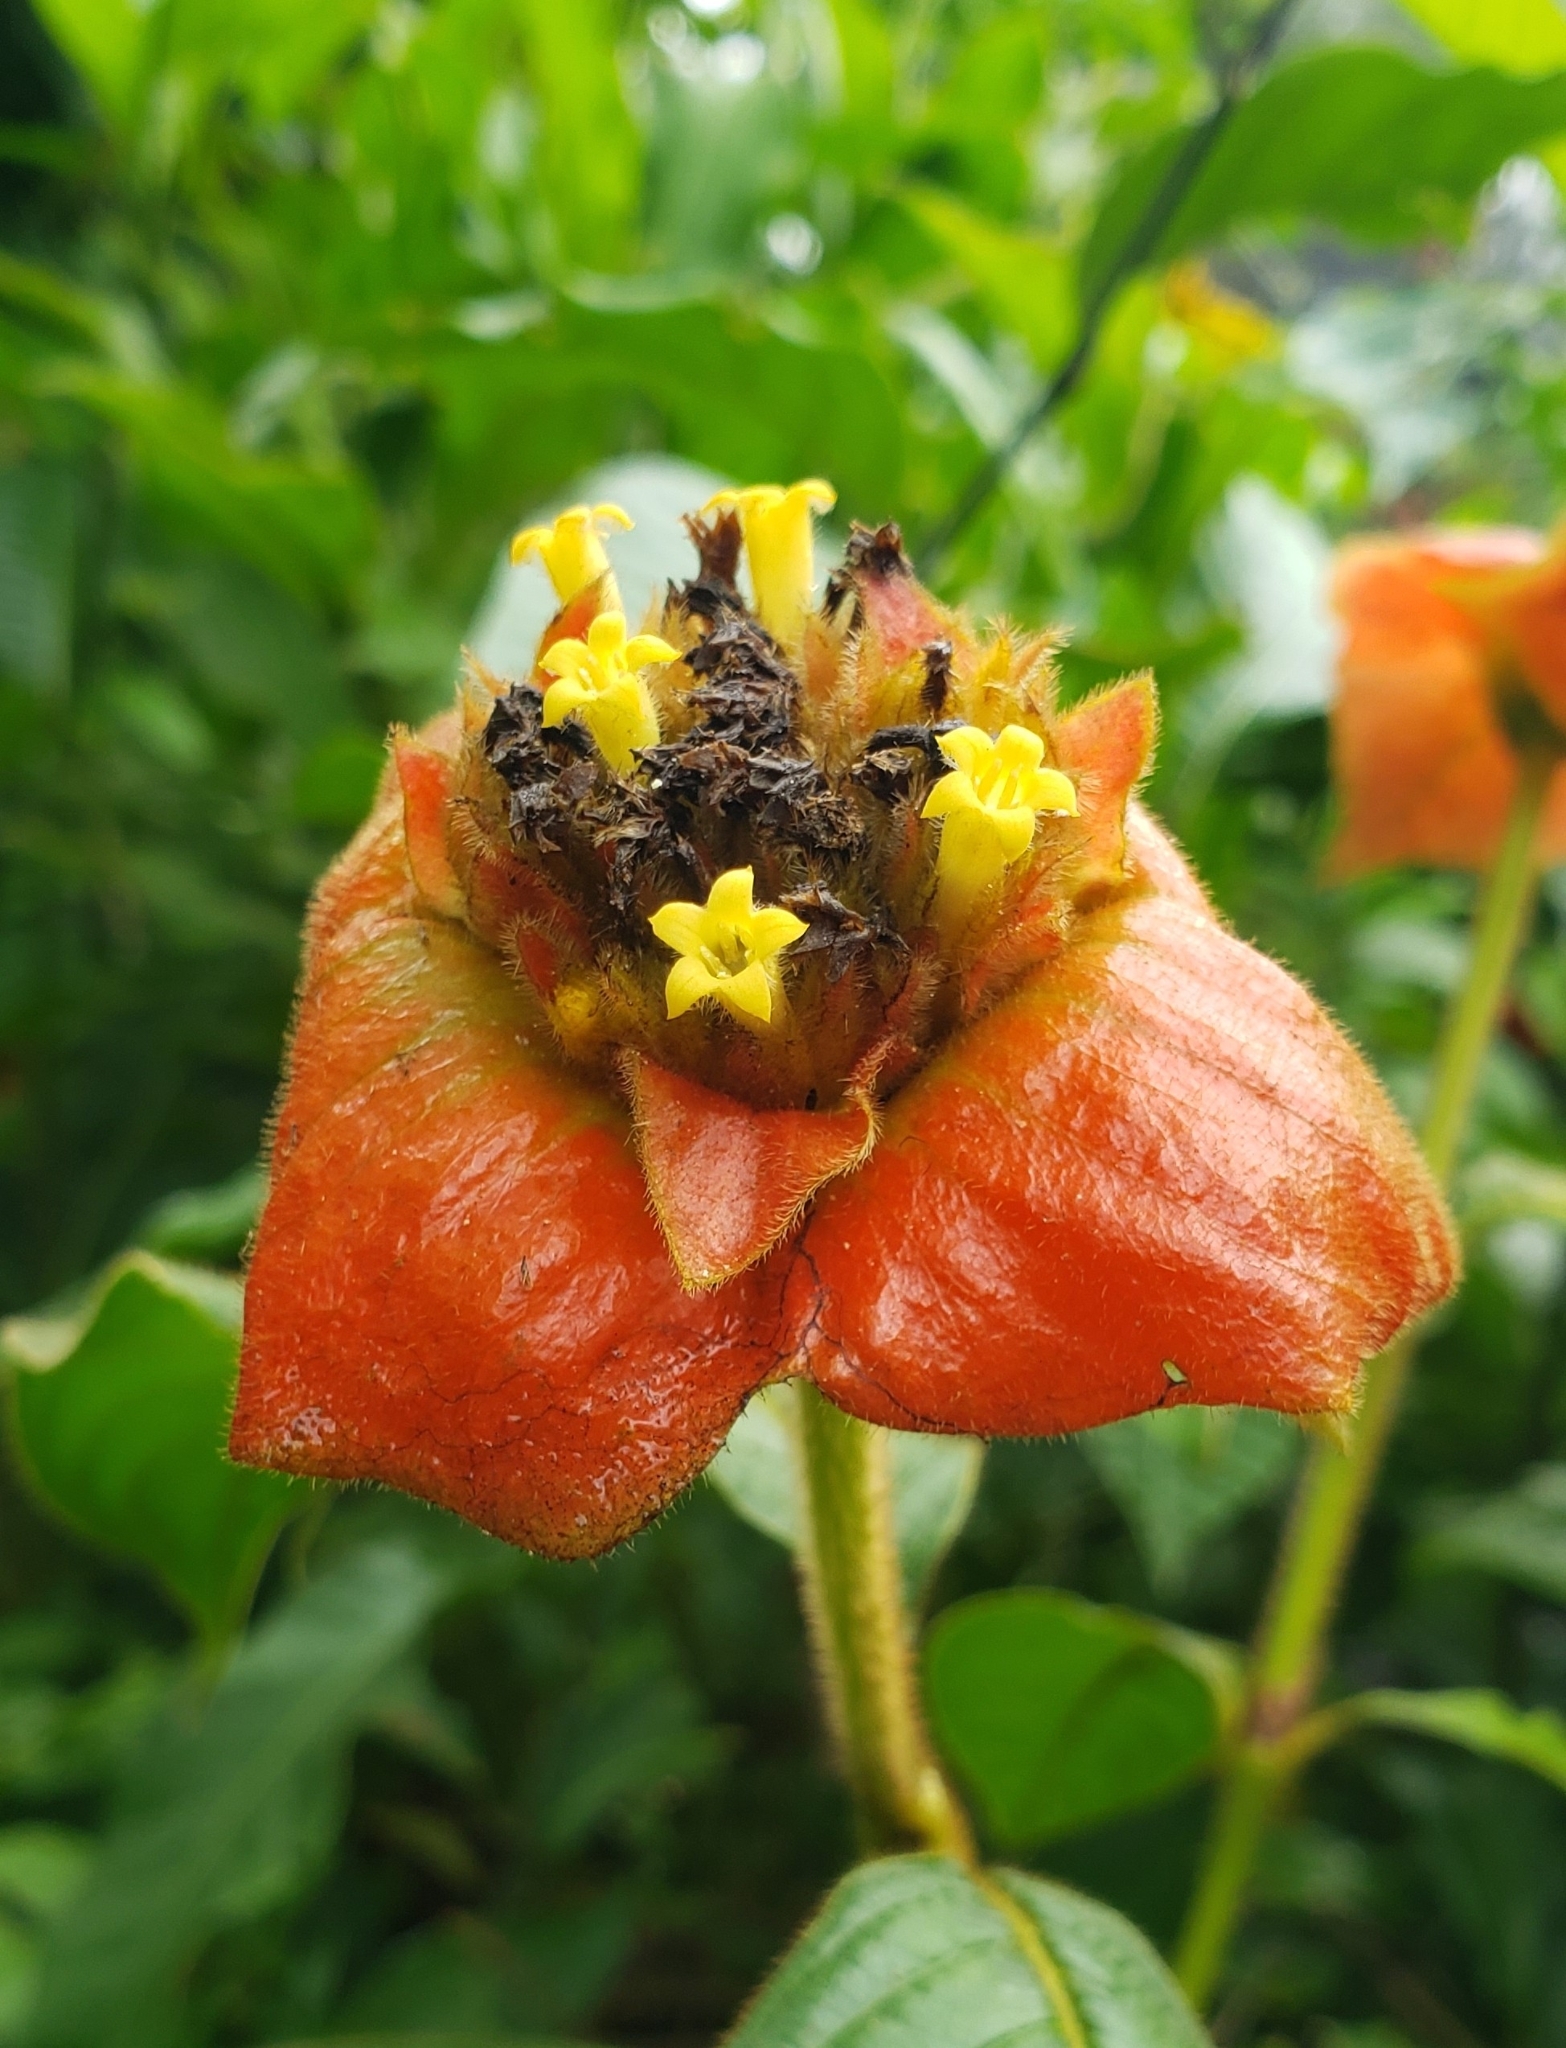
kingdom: Plantae
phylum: Tracheophyta
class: Magnoliopsida
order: Gentianales
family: Rubiaceae
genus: Palicourea
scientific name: Palicourea tomentosa
